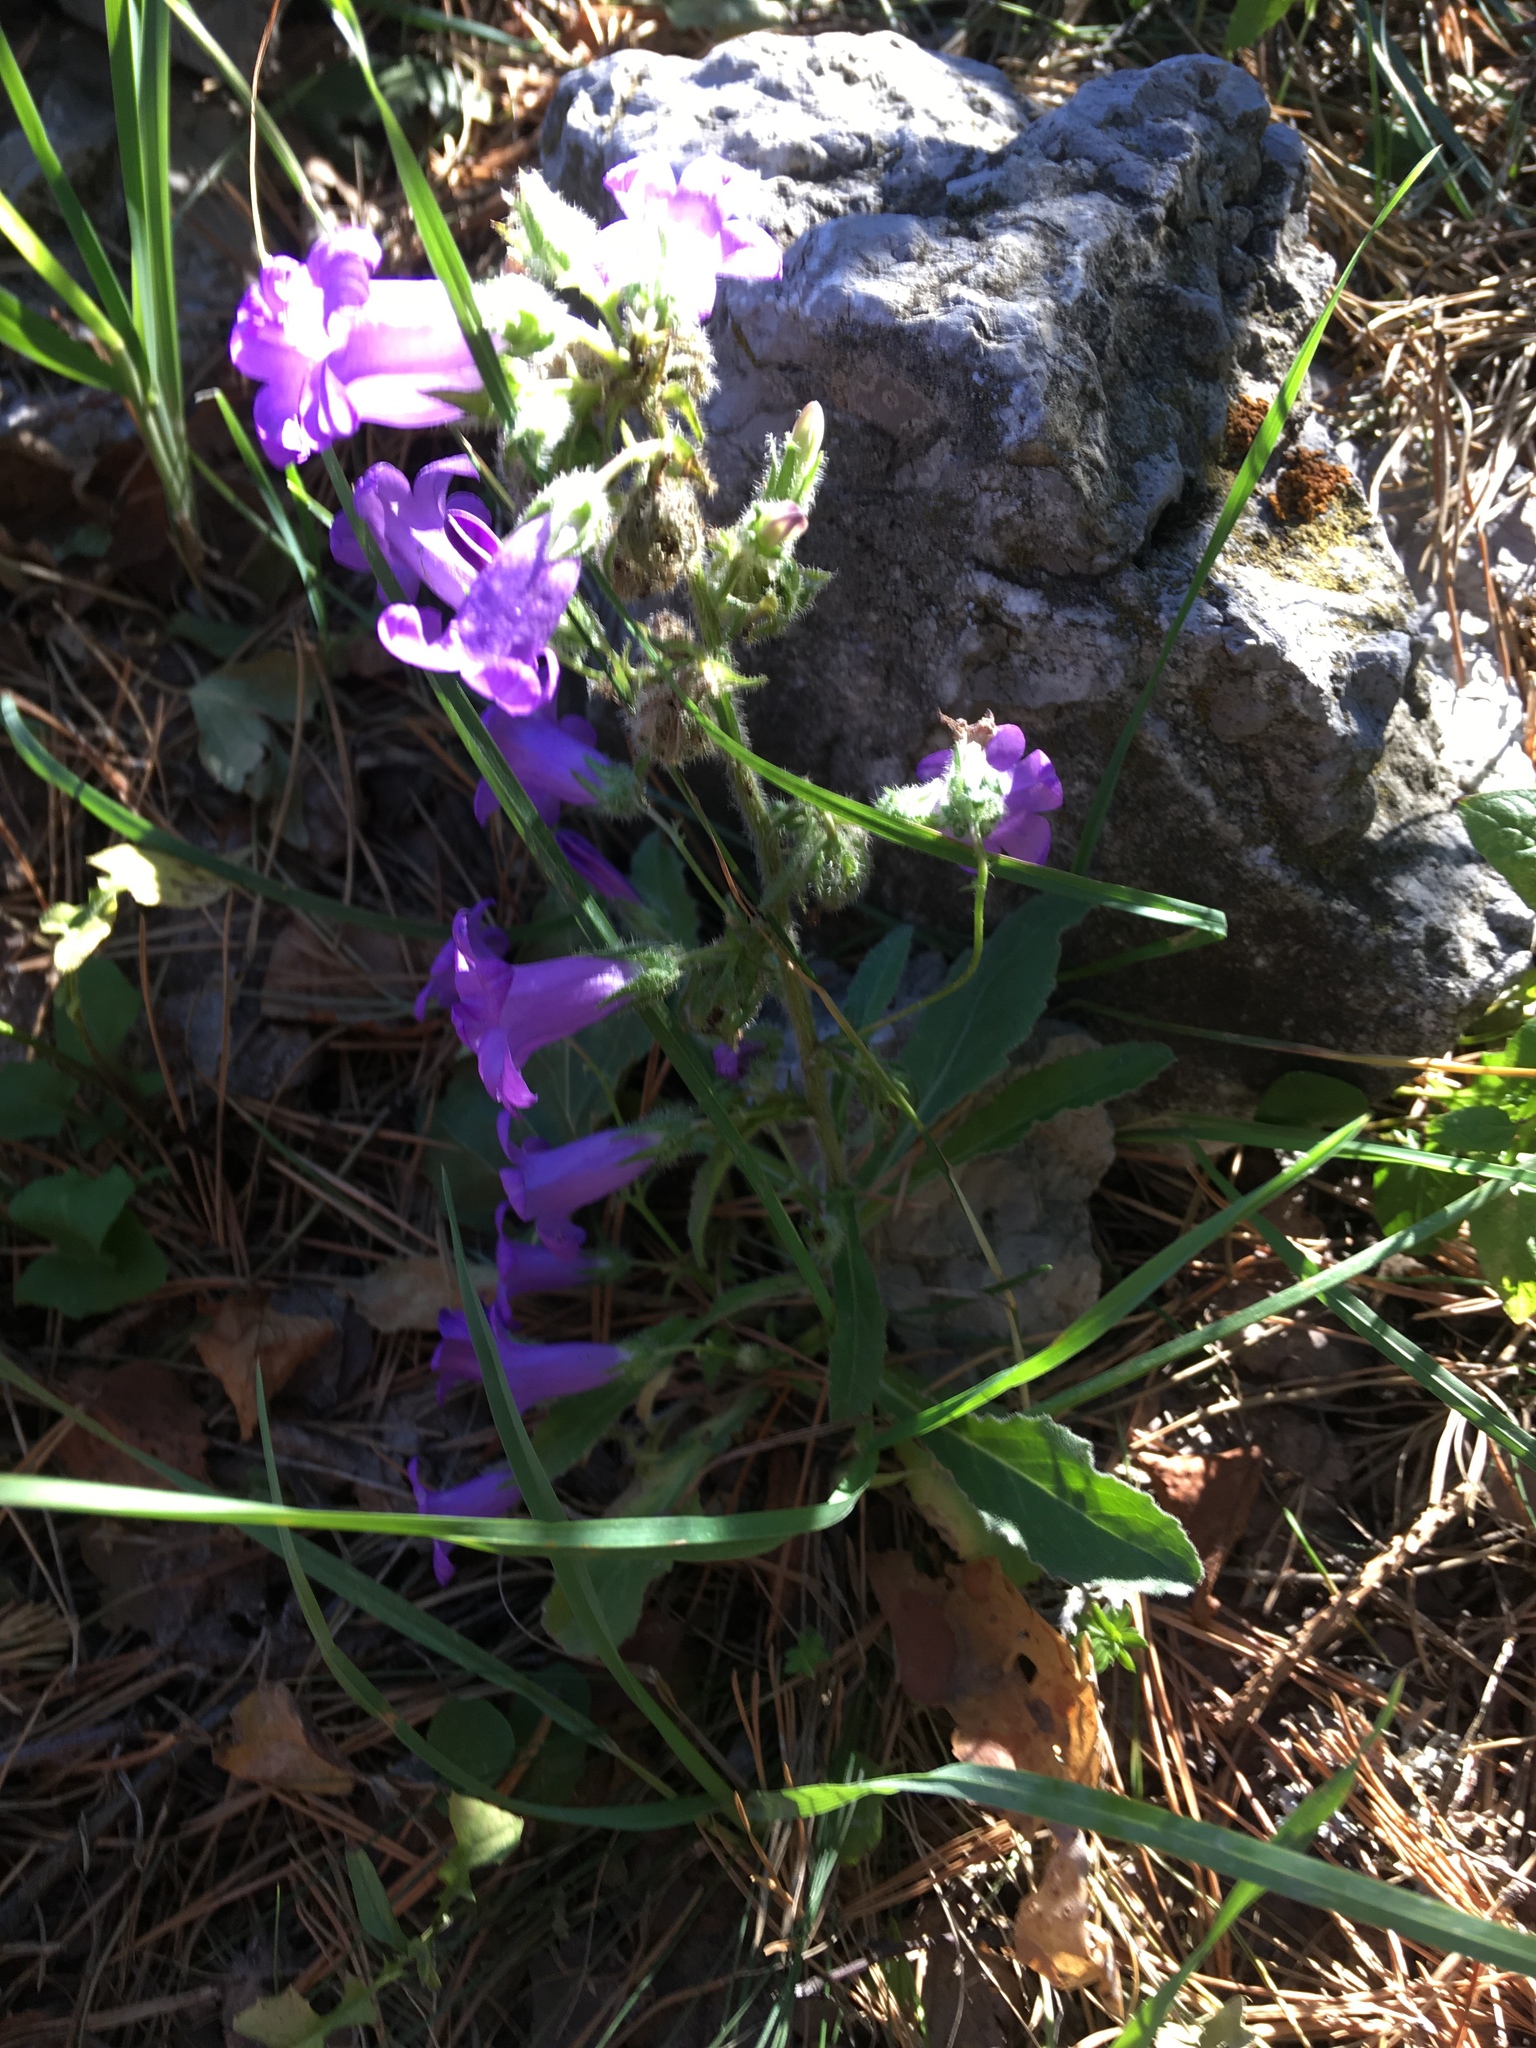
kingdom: Plantae
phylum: Tracheophyta
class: Magnoliopsida
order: Asterales
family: Campanulaceae
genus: Campanula
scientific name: Campanula sibirica
